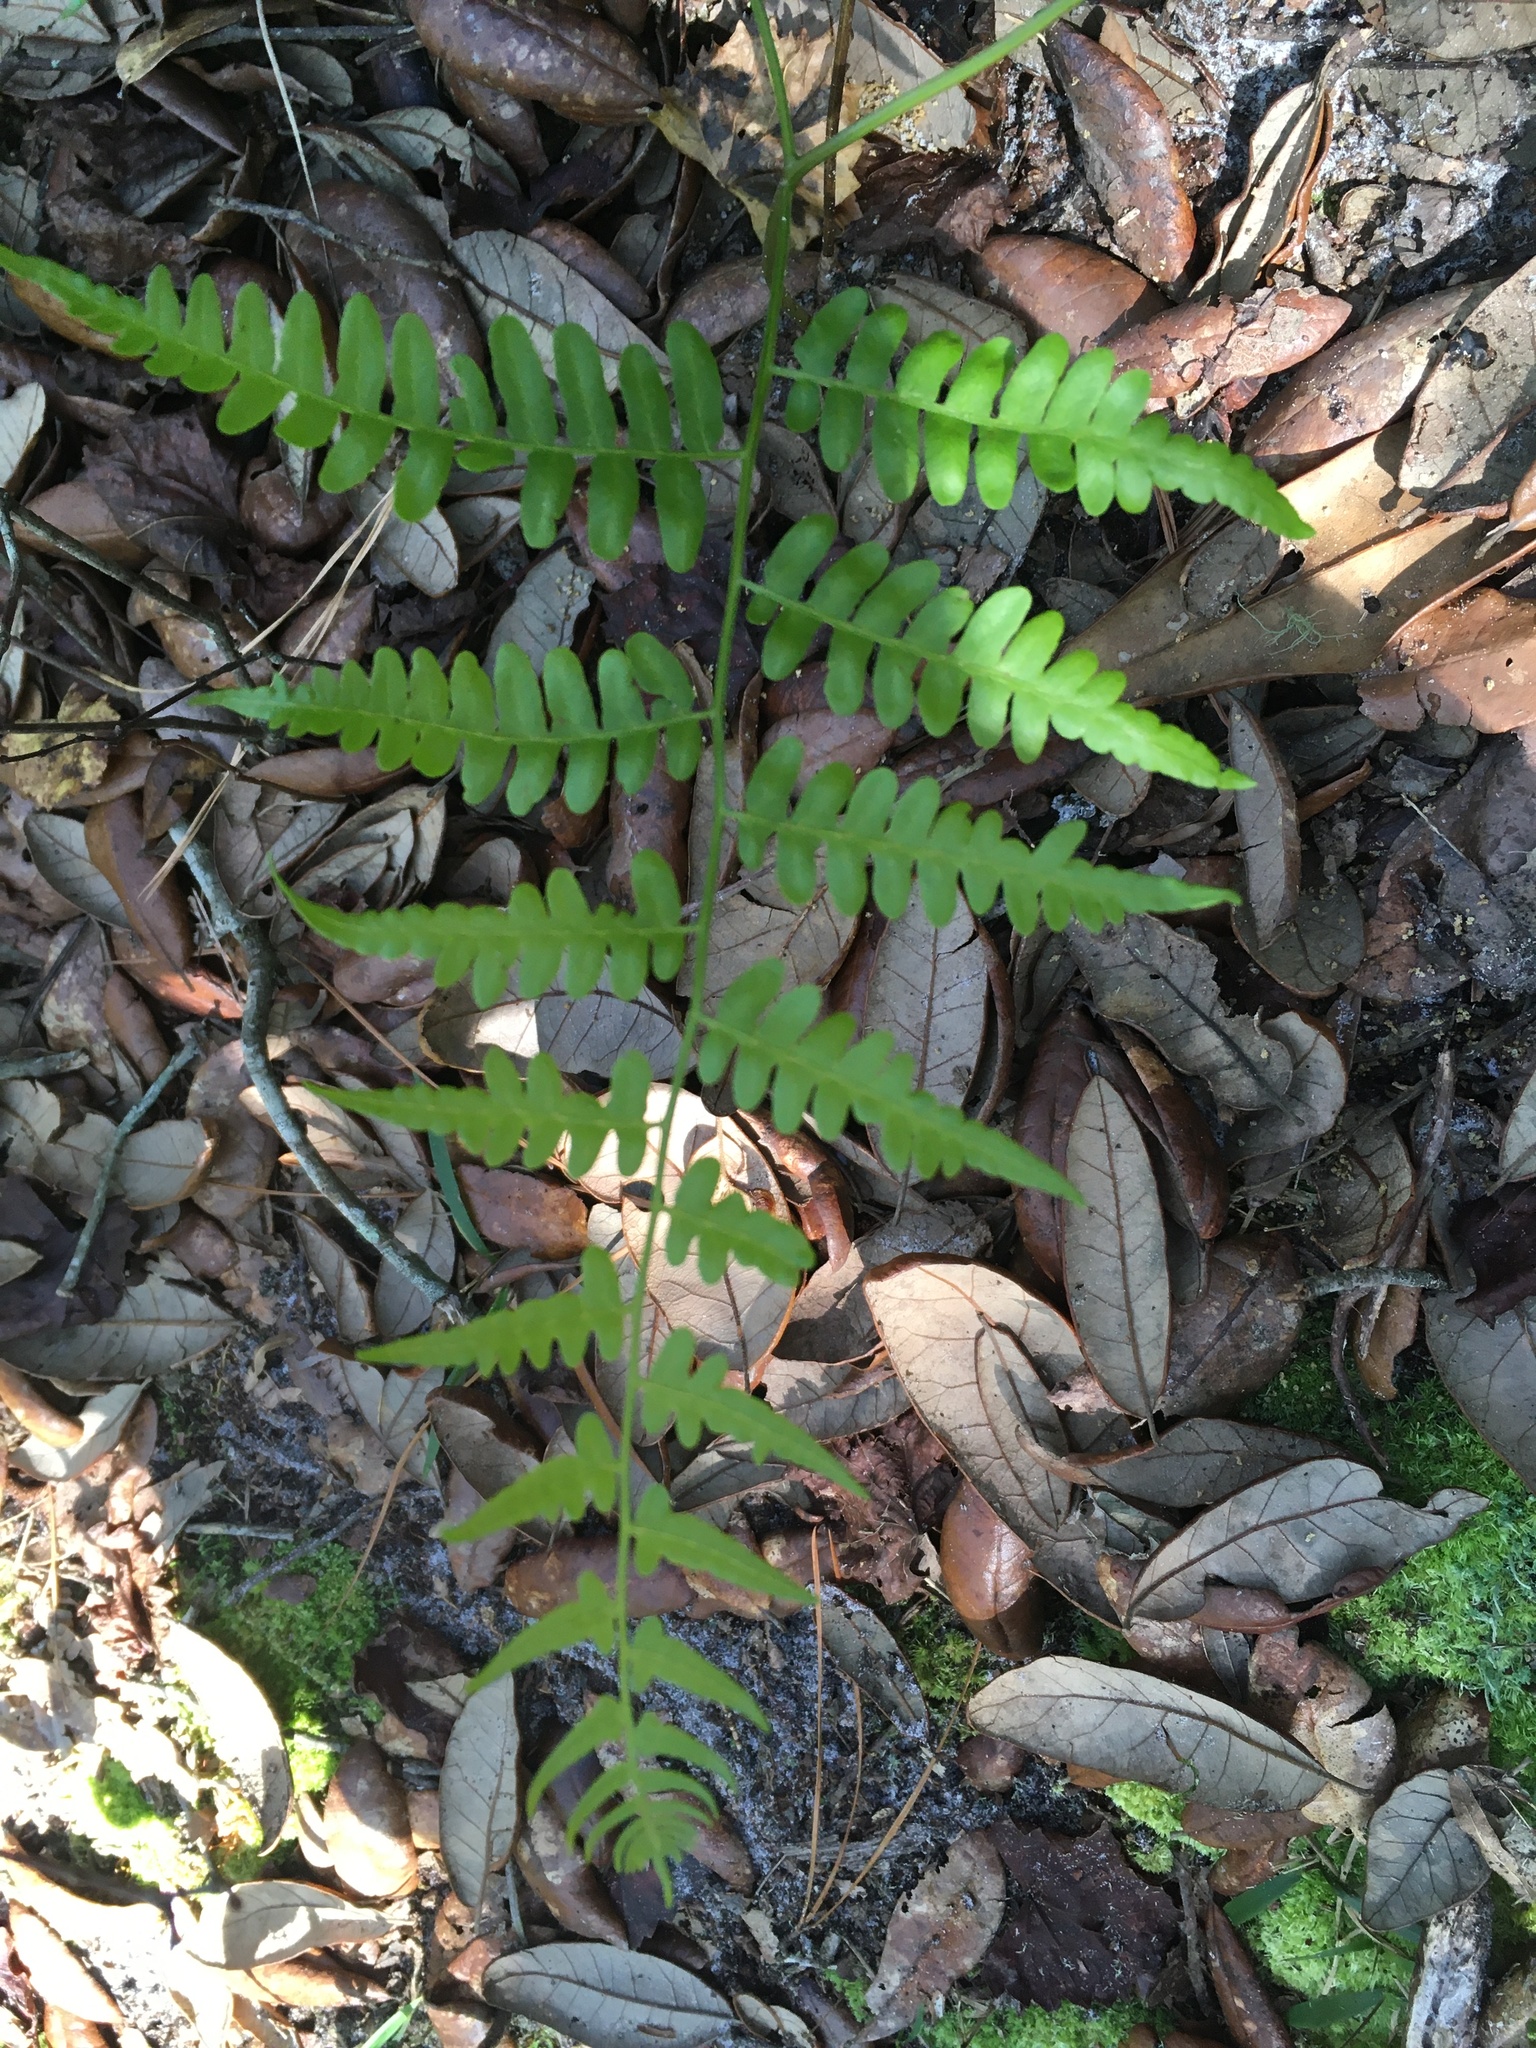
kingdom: Plantae
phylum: Tracheophyta
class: Polypodiopsida
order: Polypodiales
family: Dennstaedtiaceae
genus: Pteridium
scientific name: Pteridium
